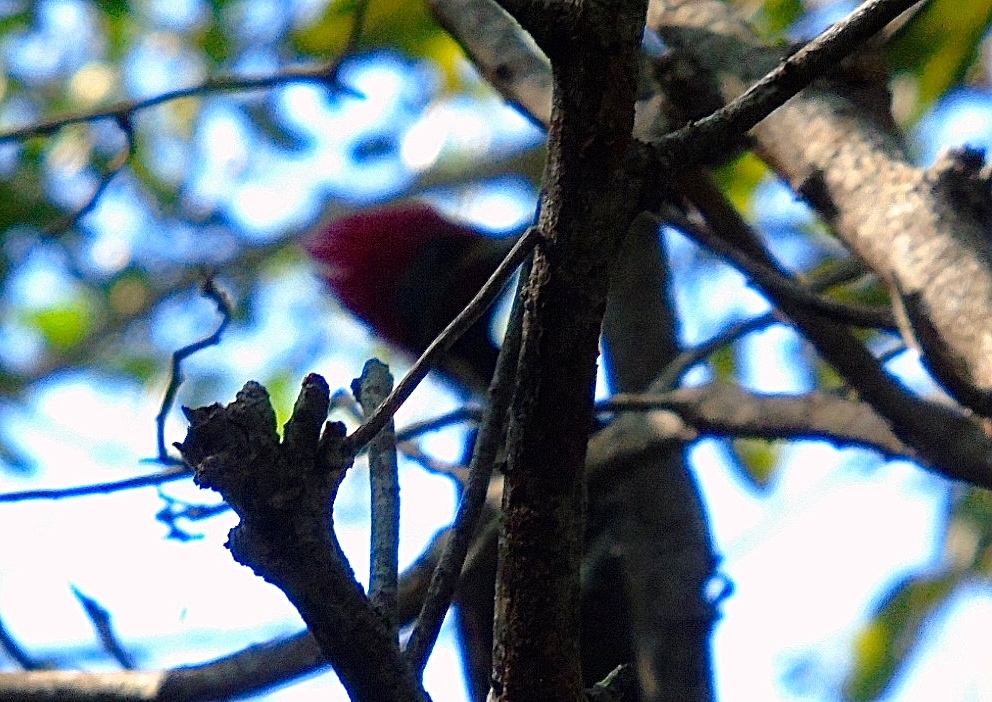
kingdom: Animalia
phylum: Chordata
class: Aves
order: Piciformes
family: Picidae
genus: Dryocopus
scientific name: Dryocopus lineatus
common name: Lineated woodpecker
